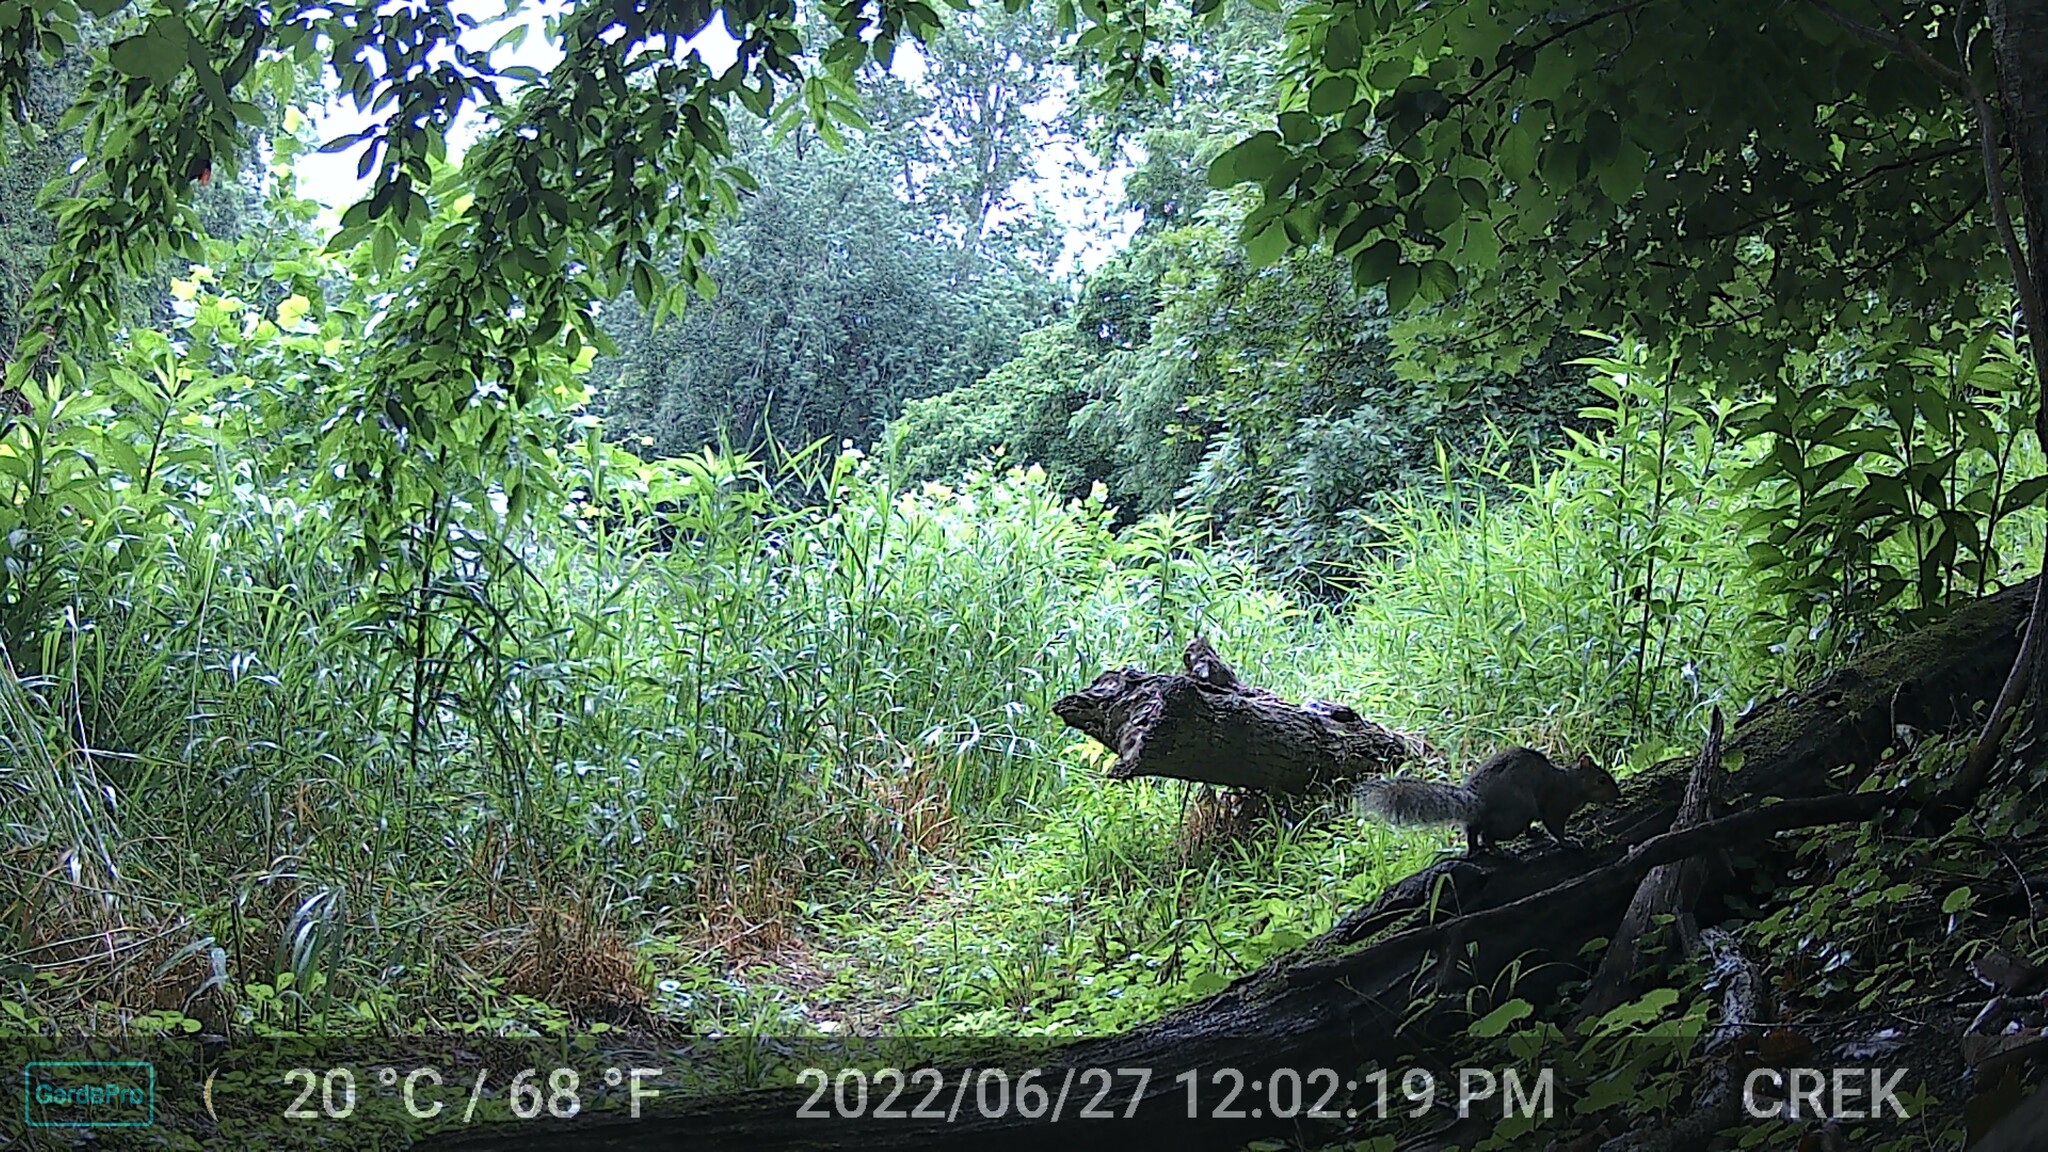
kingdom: Animalia
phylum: Chordata
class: Mammalia
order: Rodentia
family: Sciuridae
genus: Sciurus
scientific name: Sciurus carolinensis
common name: Eastern gray squirrel
